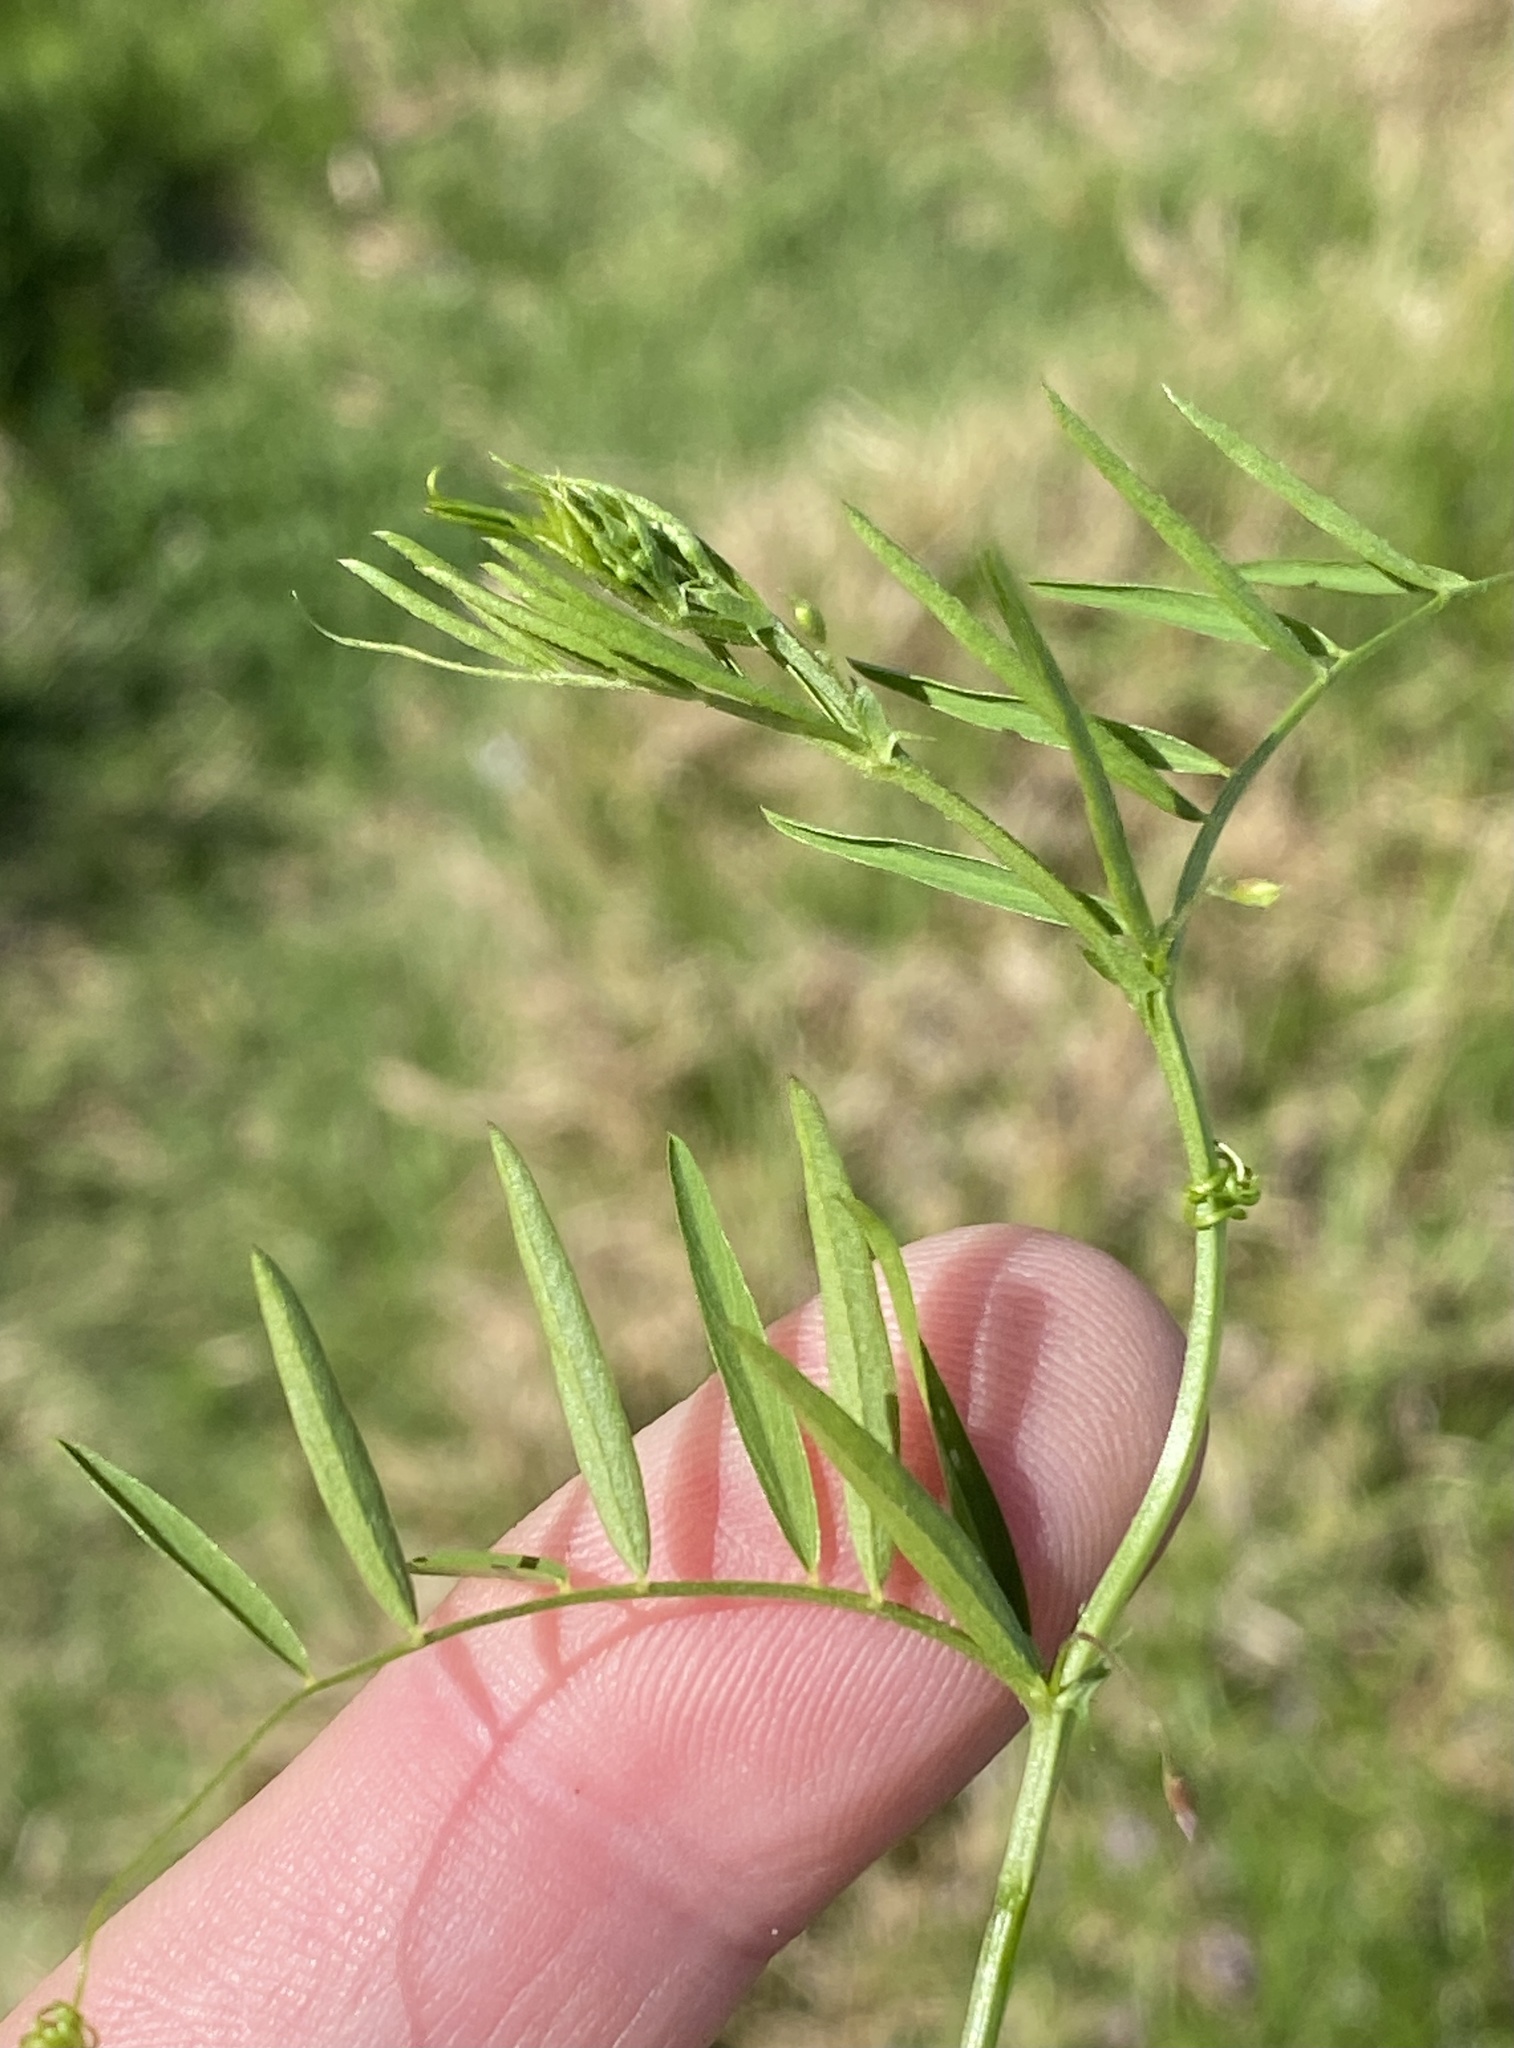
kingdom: Plantae
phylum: Tracheophyta
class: Magnoliopsida
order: Fabales
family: Fabaceae
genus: Vicia
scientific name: Vicia tetrasperma
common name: Smooth tare
